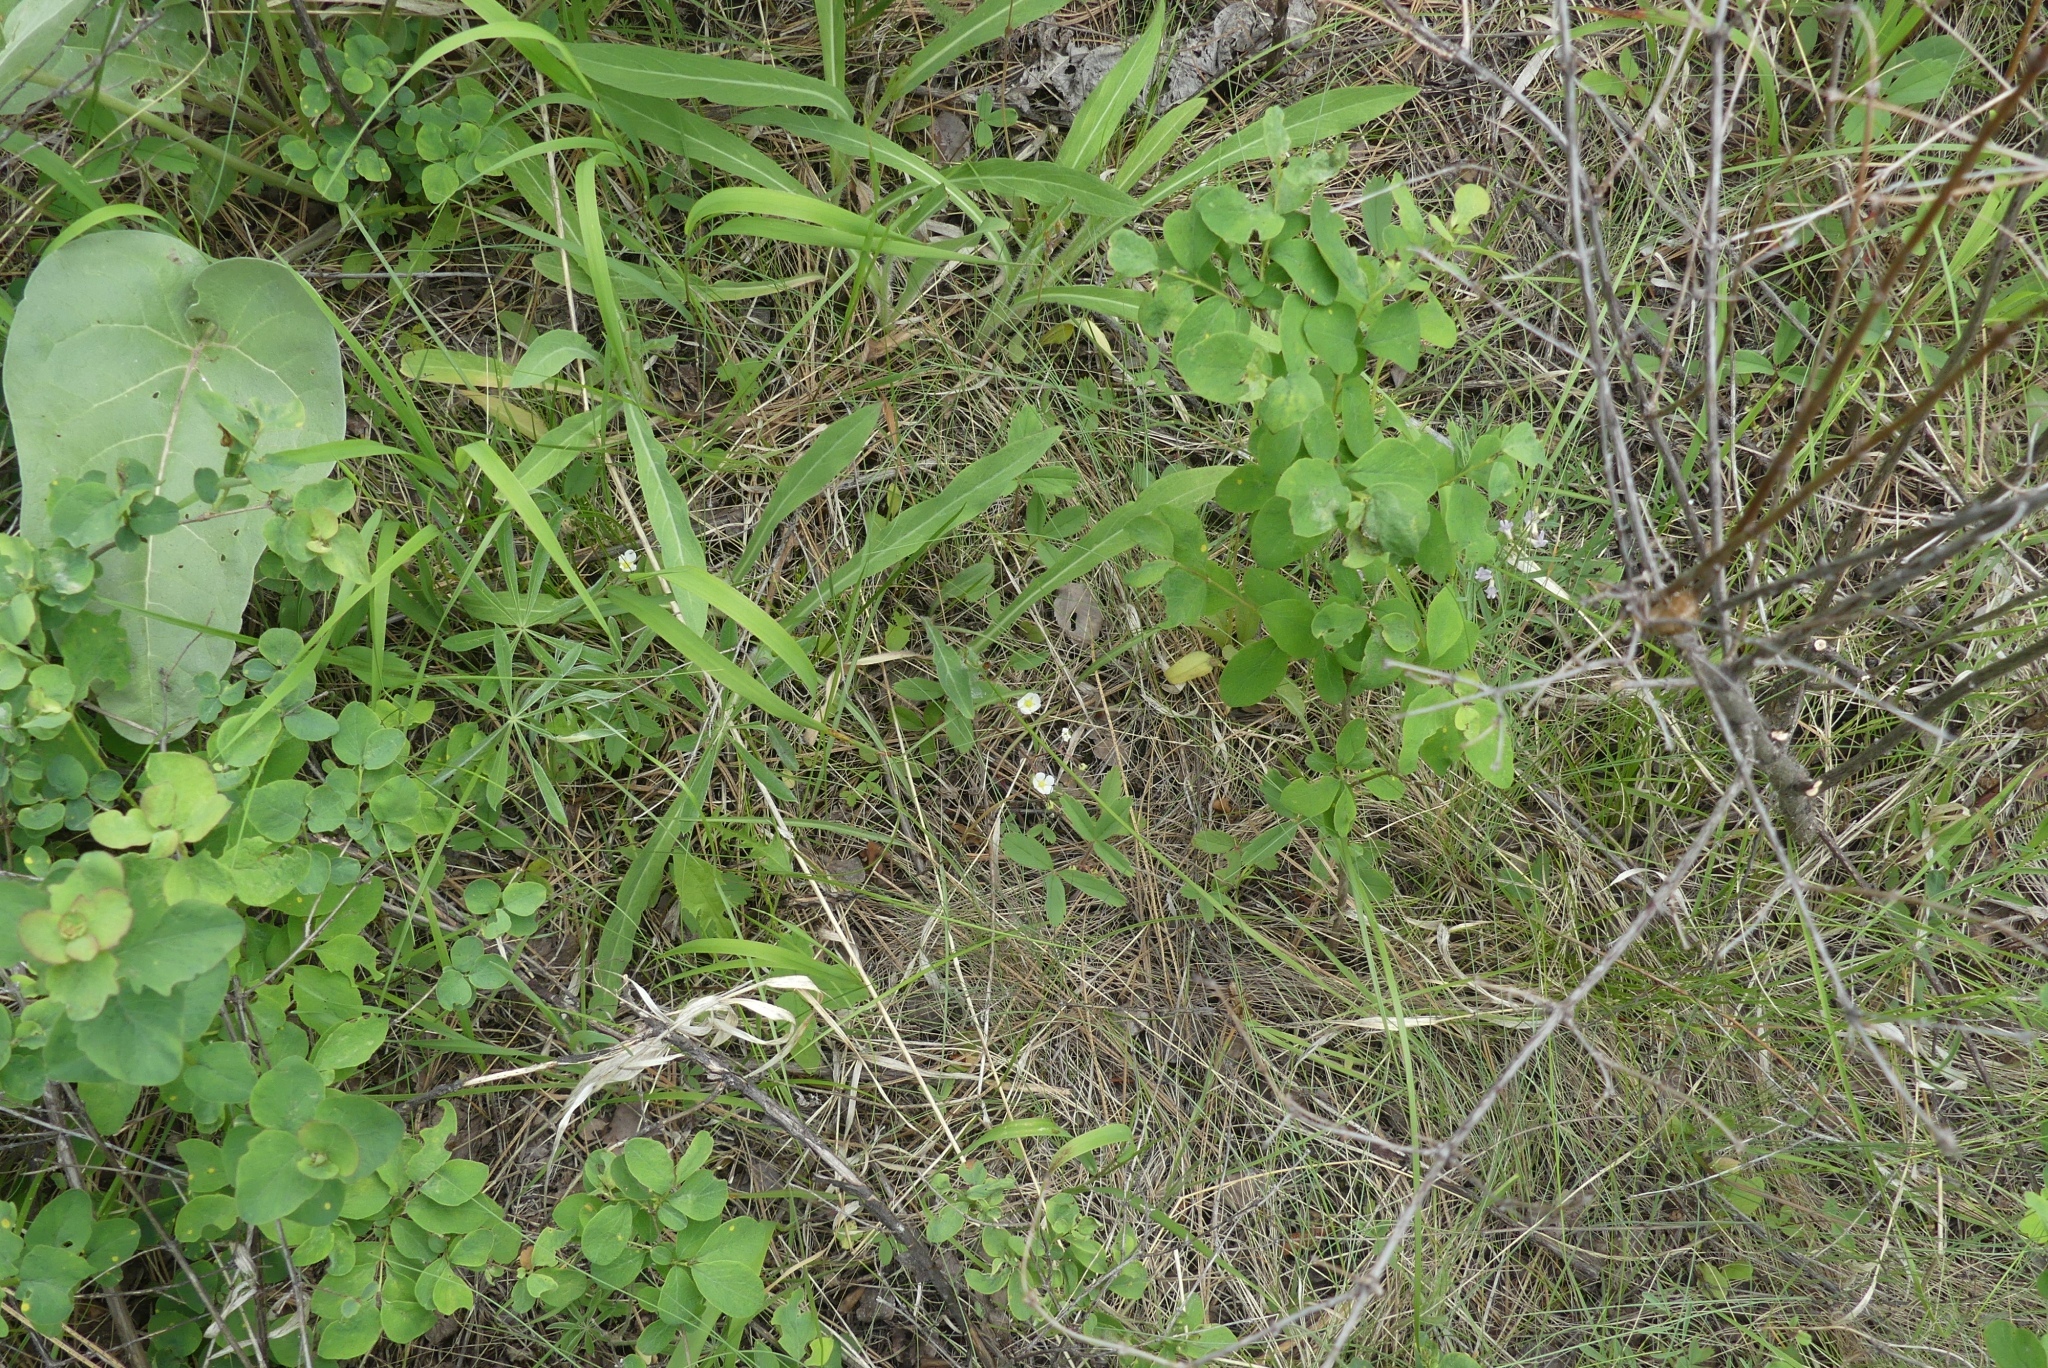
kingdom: Plantae
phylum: Tracheophyta
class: Magnoliopsida
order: Rosales
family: Rosaceae
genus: Fragaria
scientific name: Fragaria virginiana
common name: Thickleaved wild strawberry
